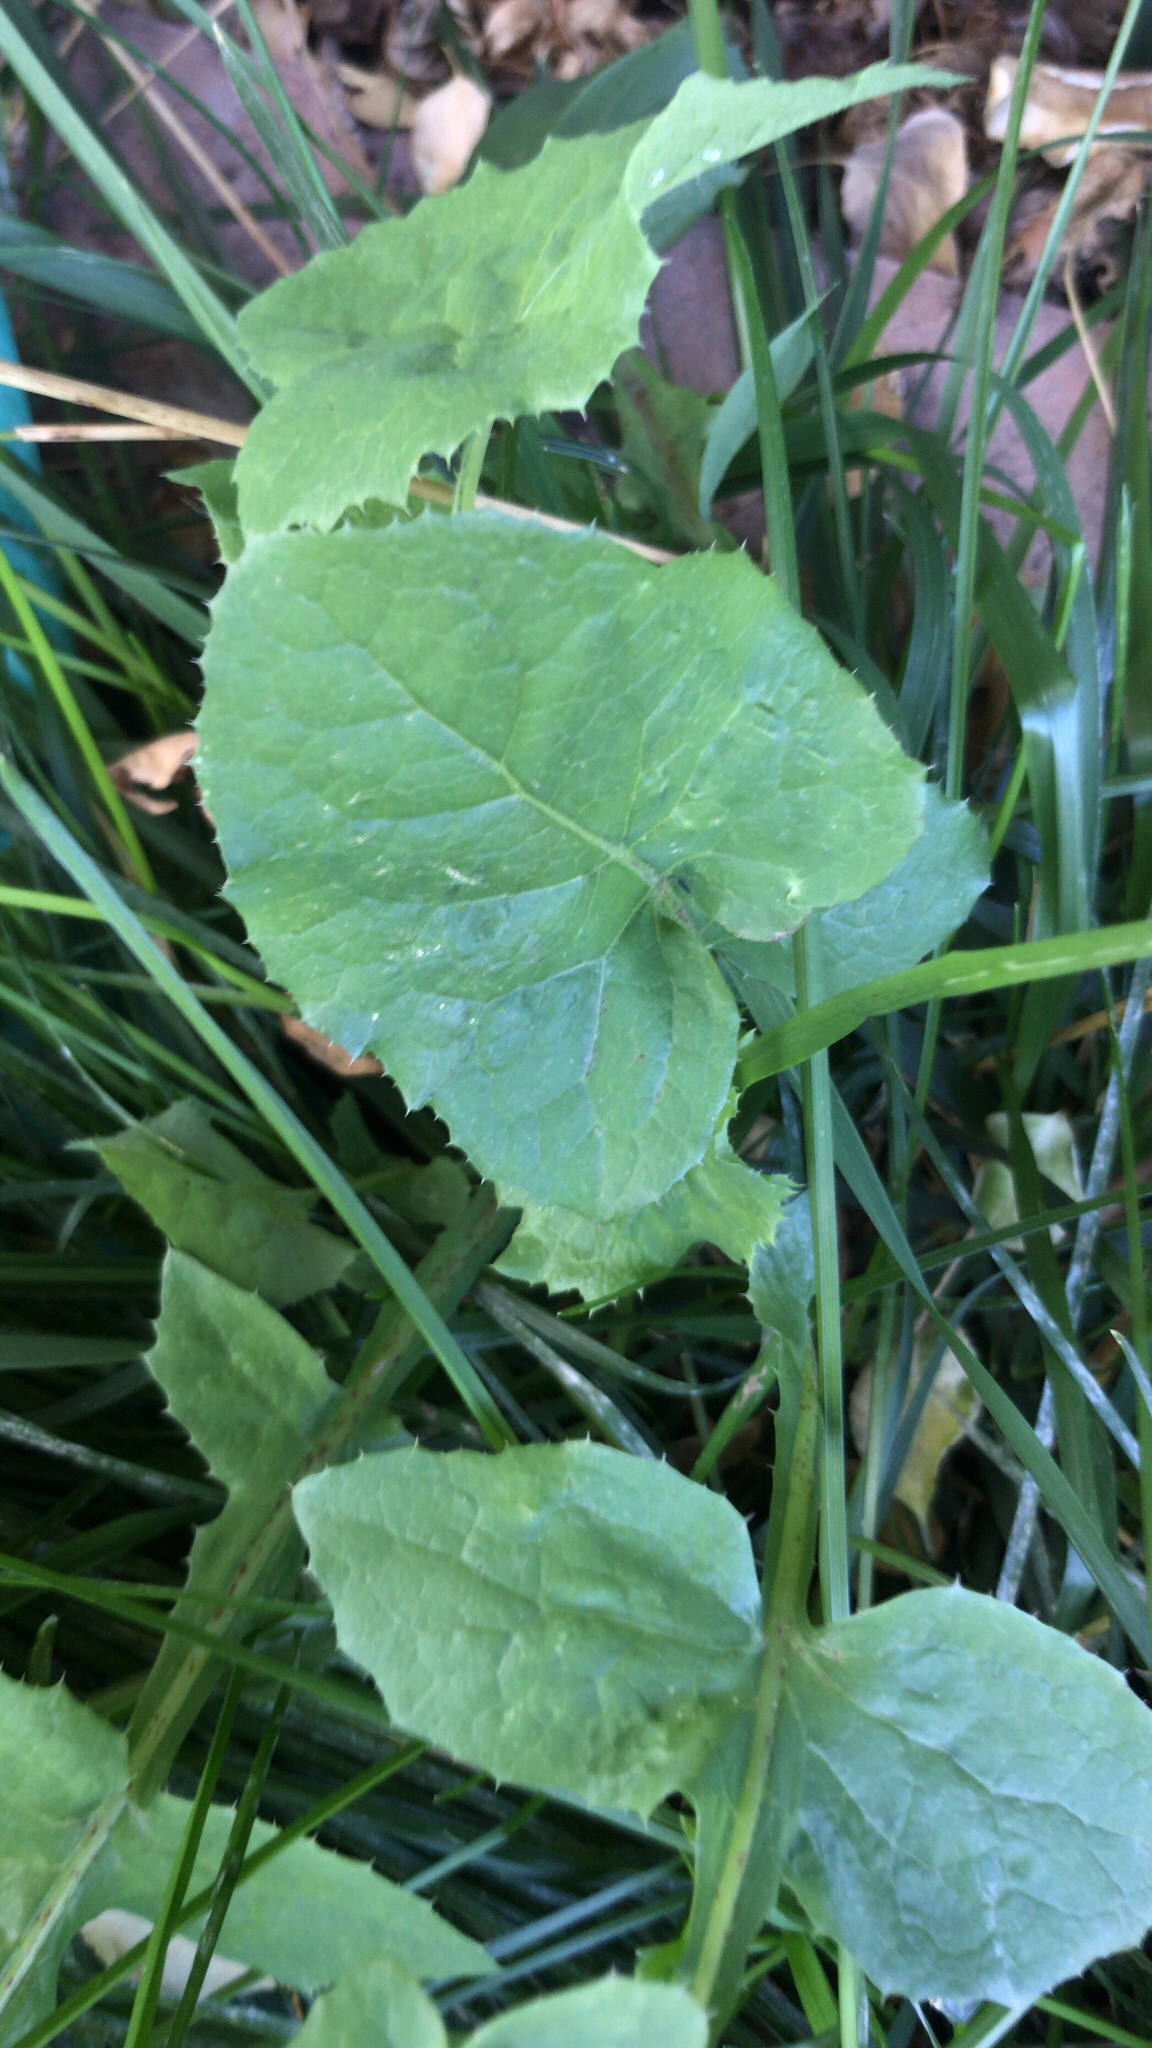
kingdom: Plantae
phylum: Tracheophyta
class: Magnoliopsida
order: Asterales
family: Asteraceae
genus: Sonchus
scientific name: Sonchus oleraceus
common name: Common sowthistle
